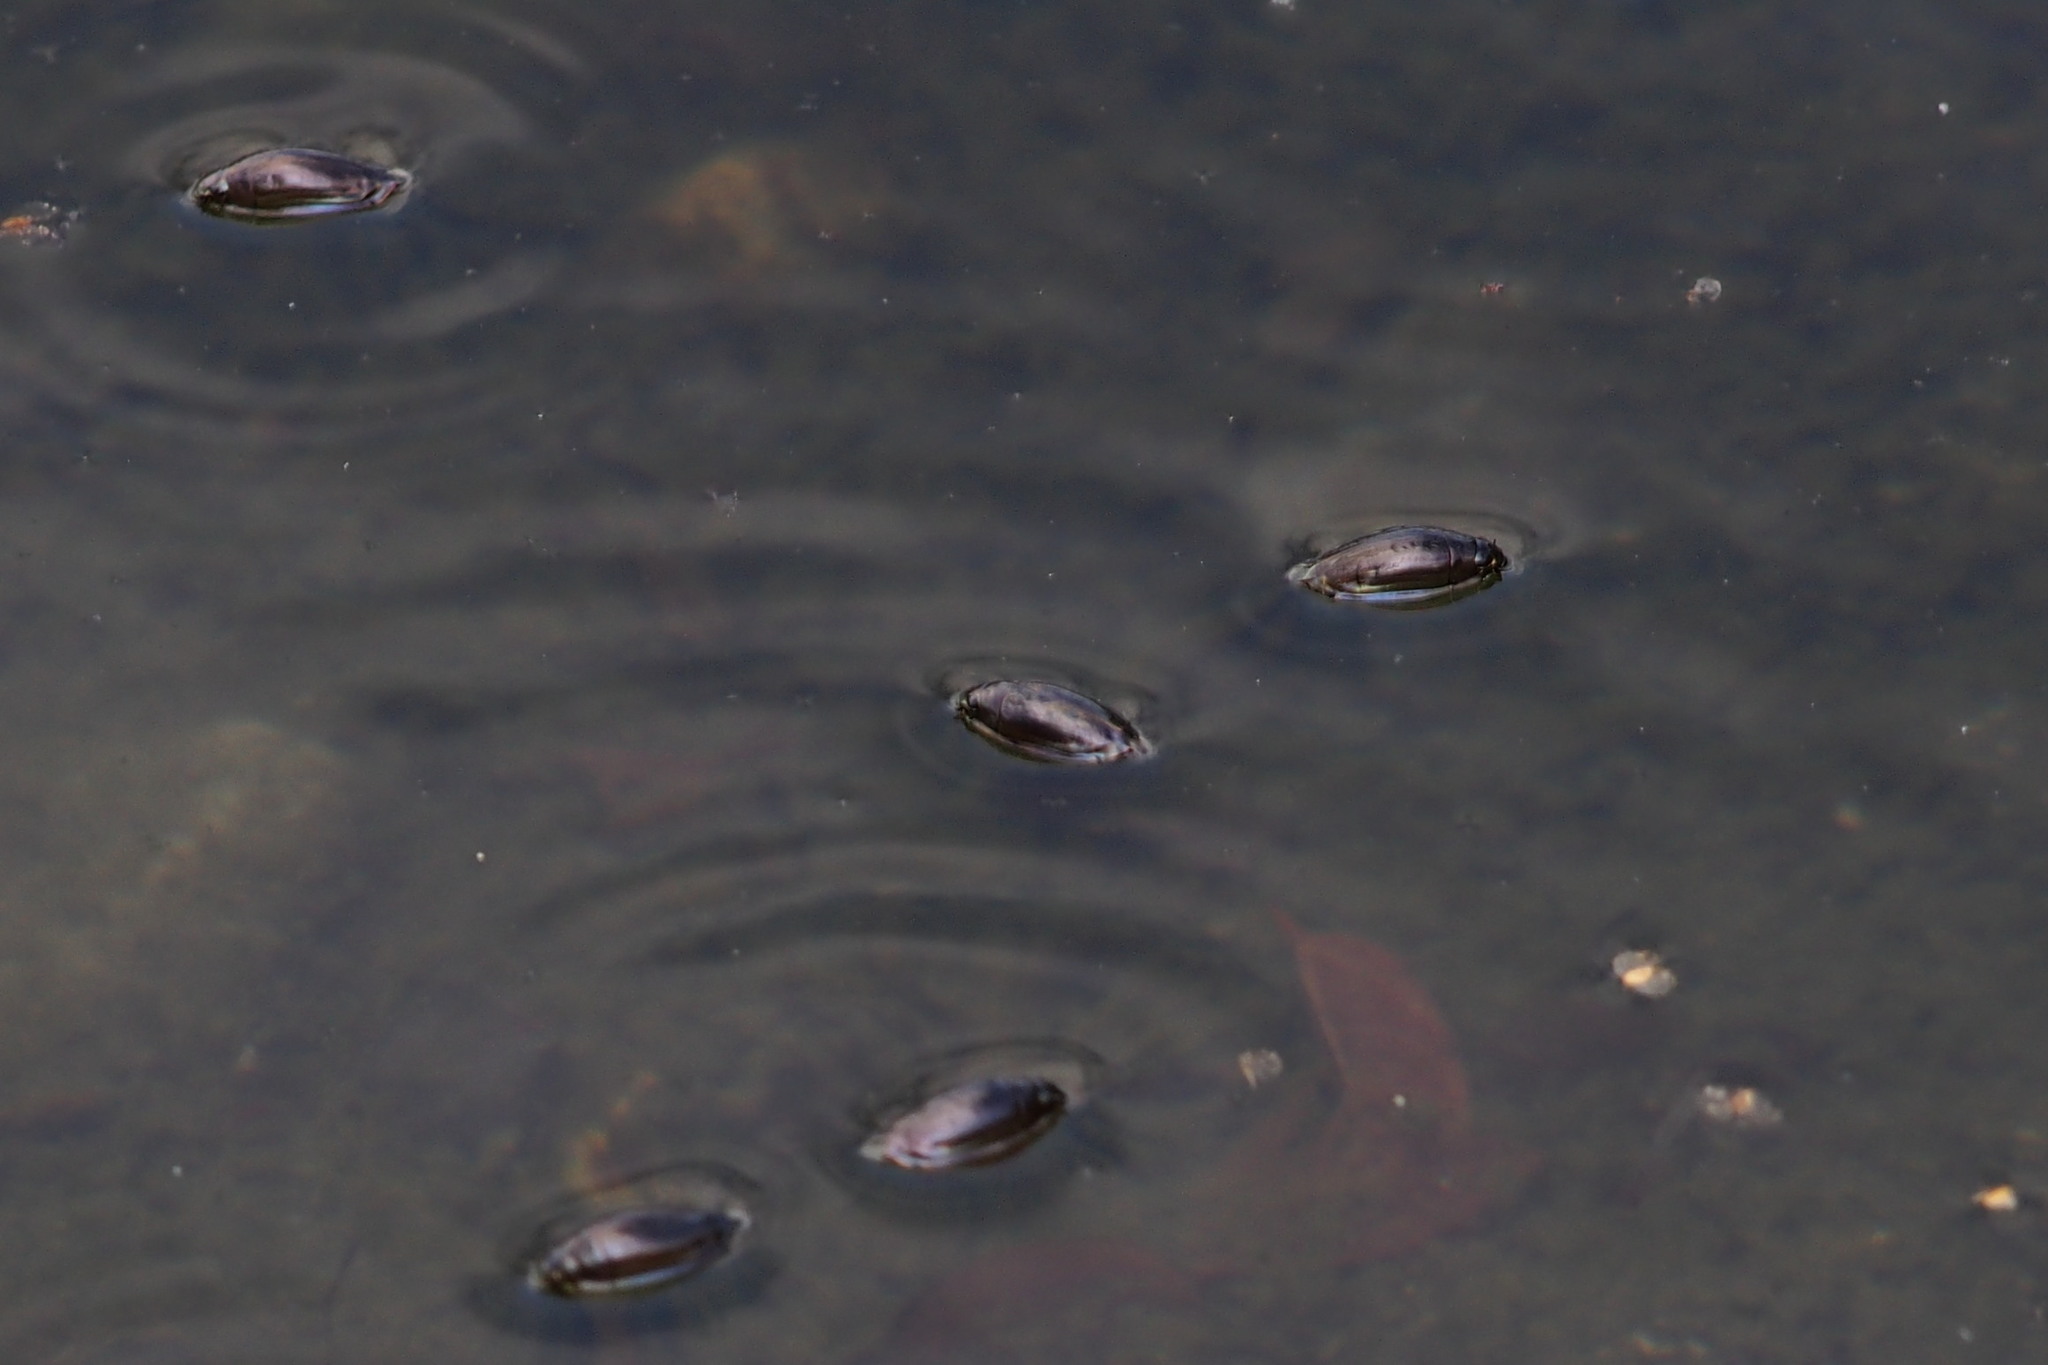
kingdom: Animalia
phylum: Arthropoda
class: Insecta
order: Coleoptera
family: Gyrinidae
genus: Dineutus
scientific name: Dineutus orientalis
